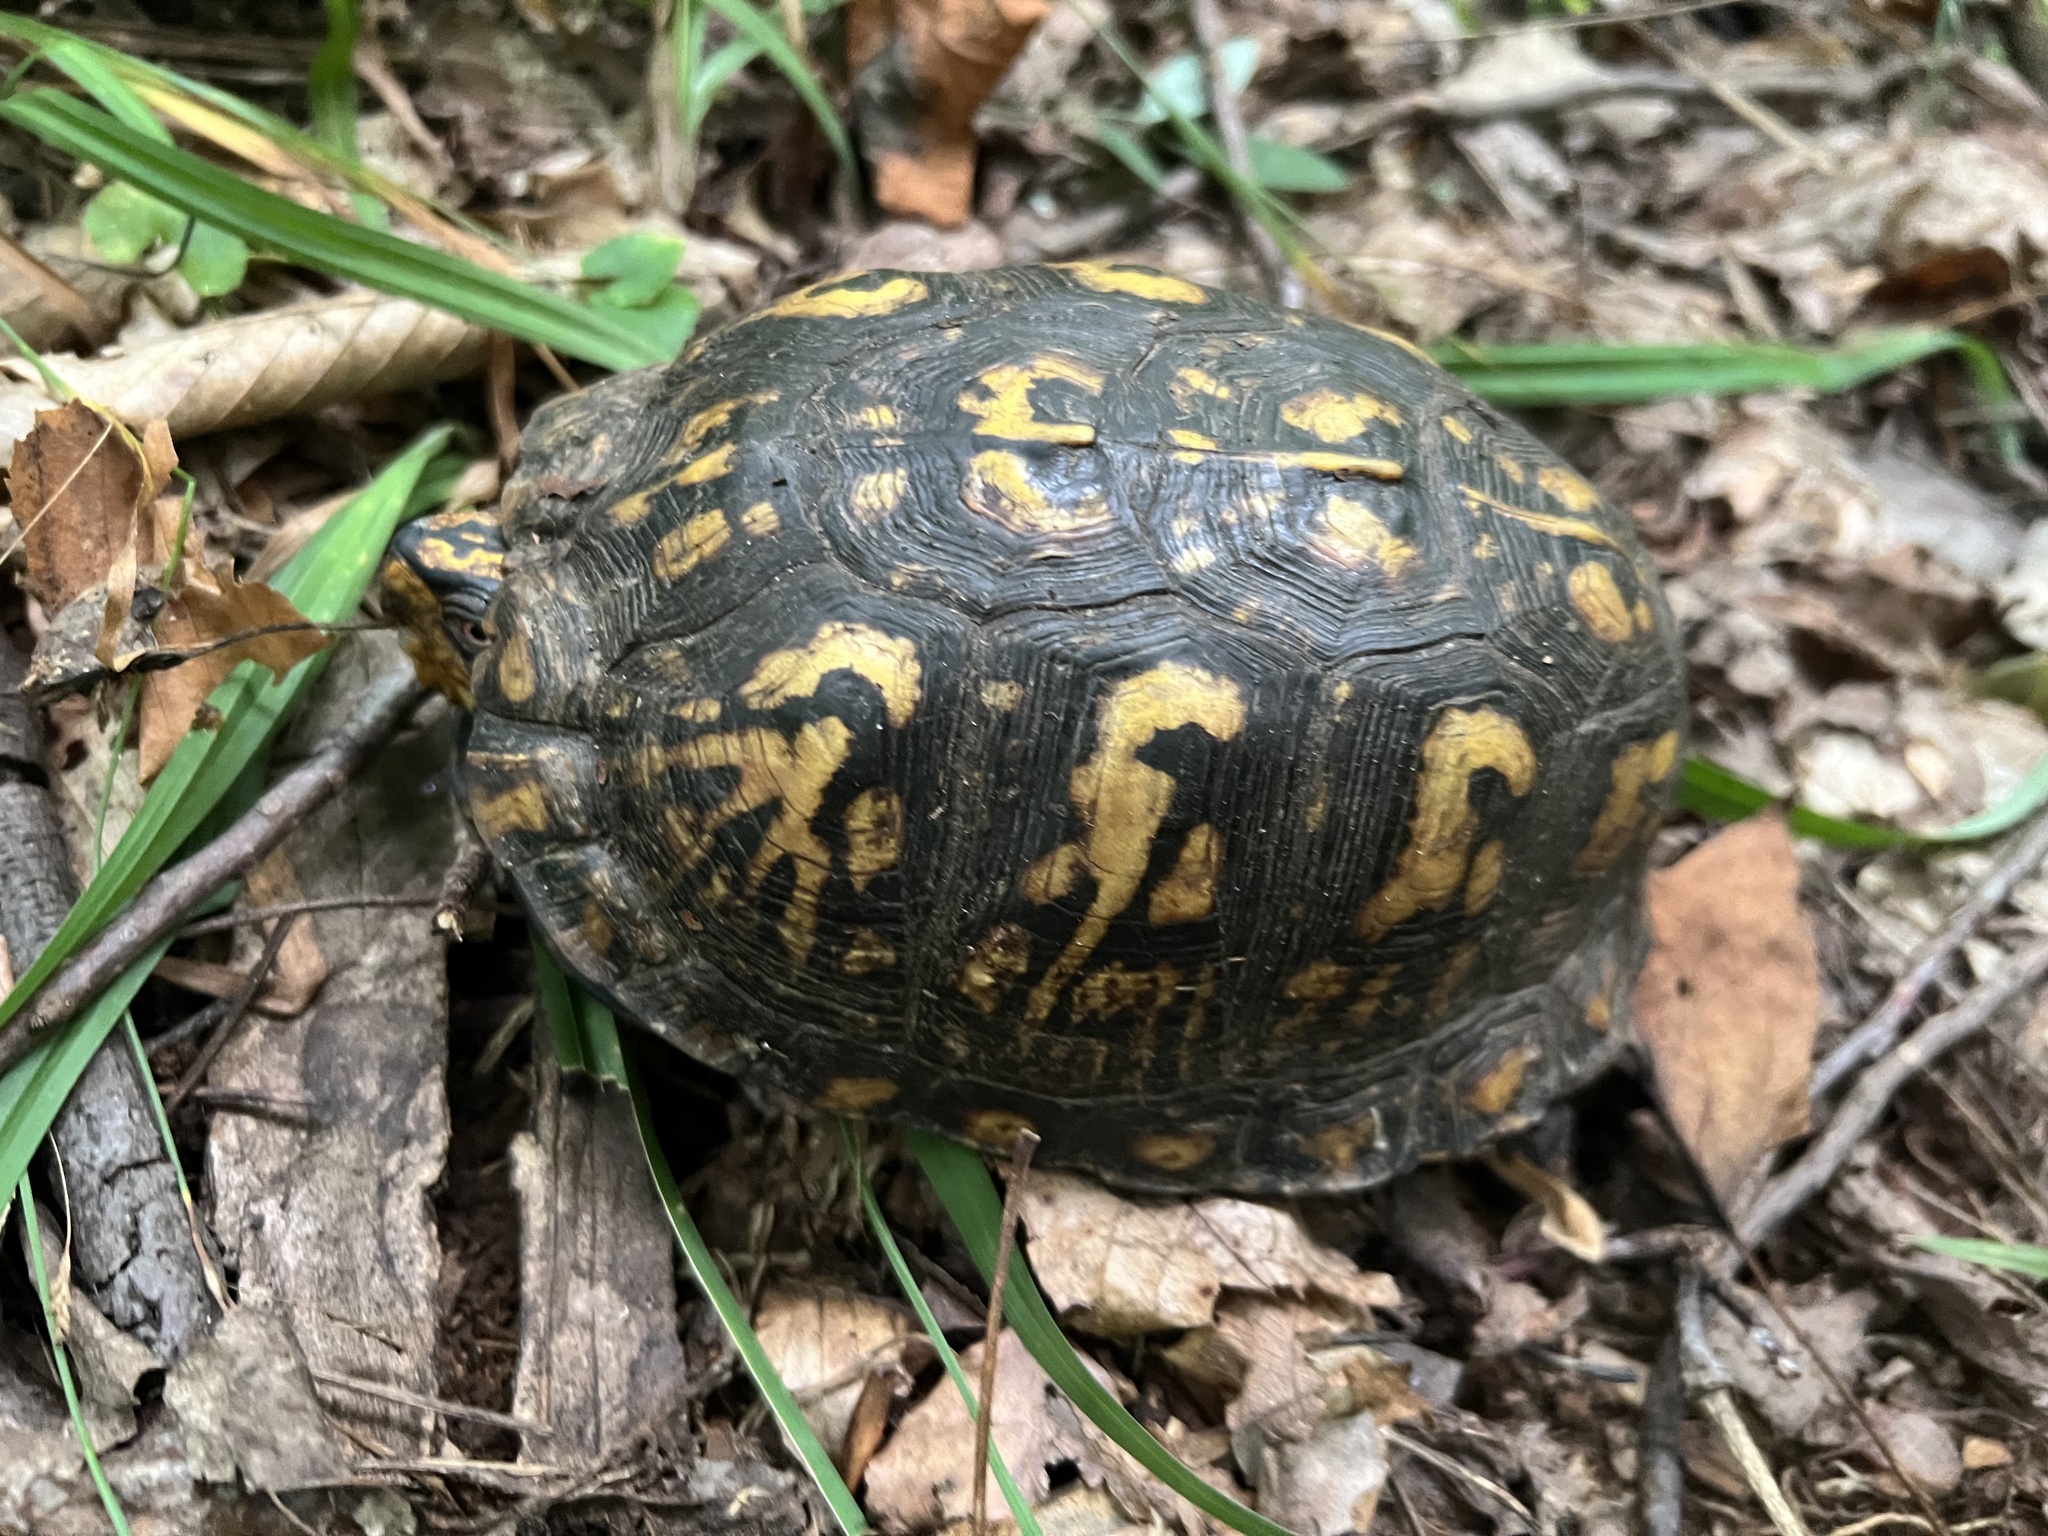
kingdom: Animalia
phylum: Chordata
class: Testudines
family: Emydidae
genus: Terrapene
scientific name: Terrapene carolina
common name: Common box turtle
